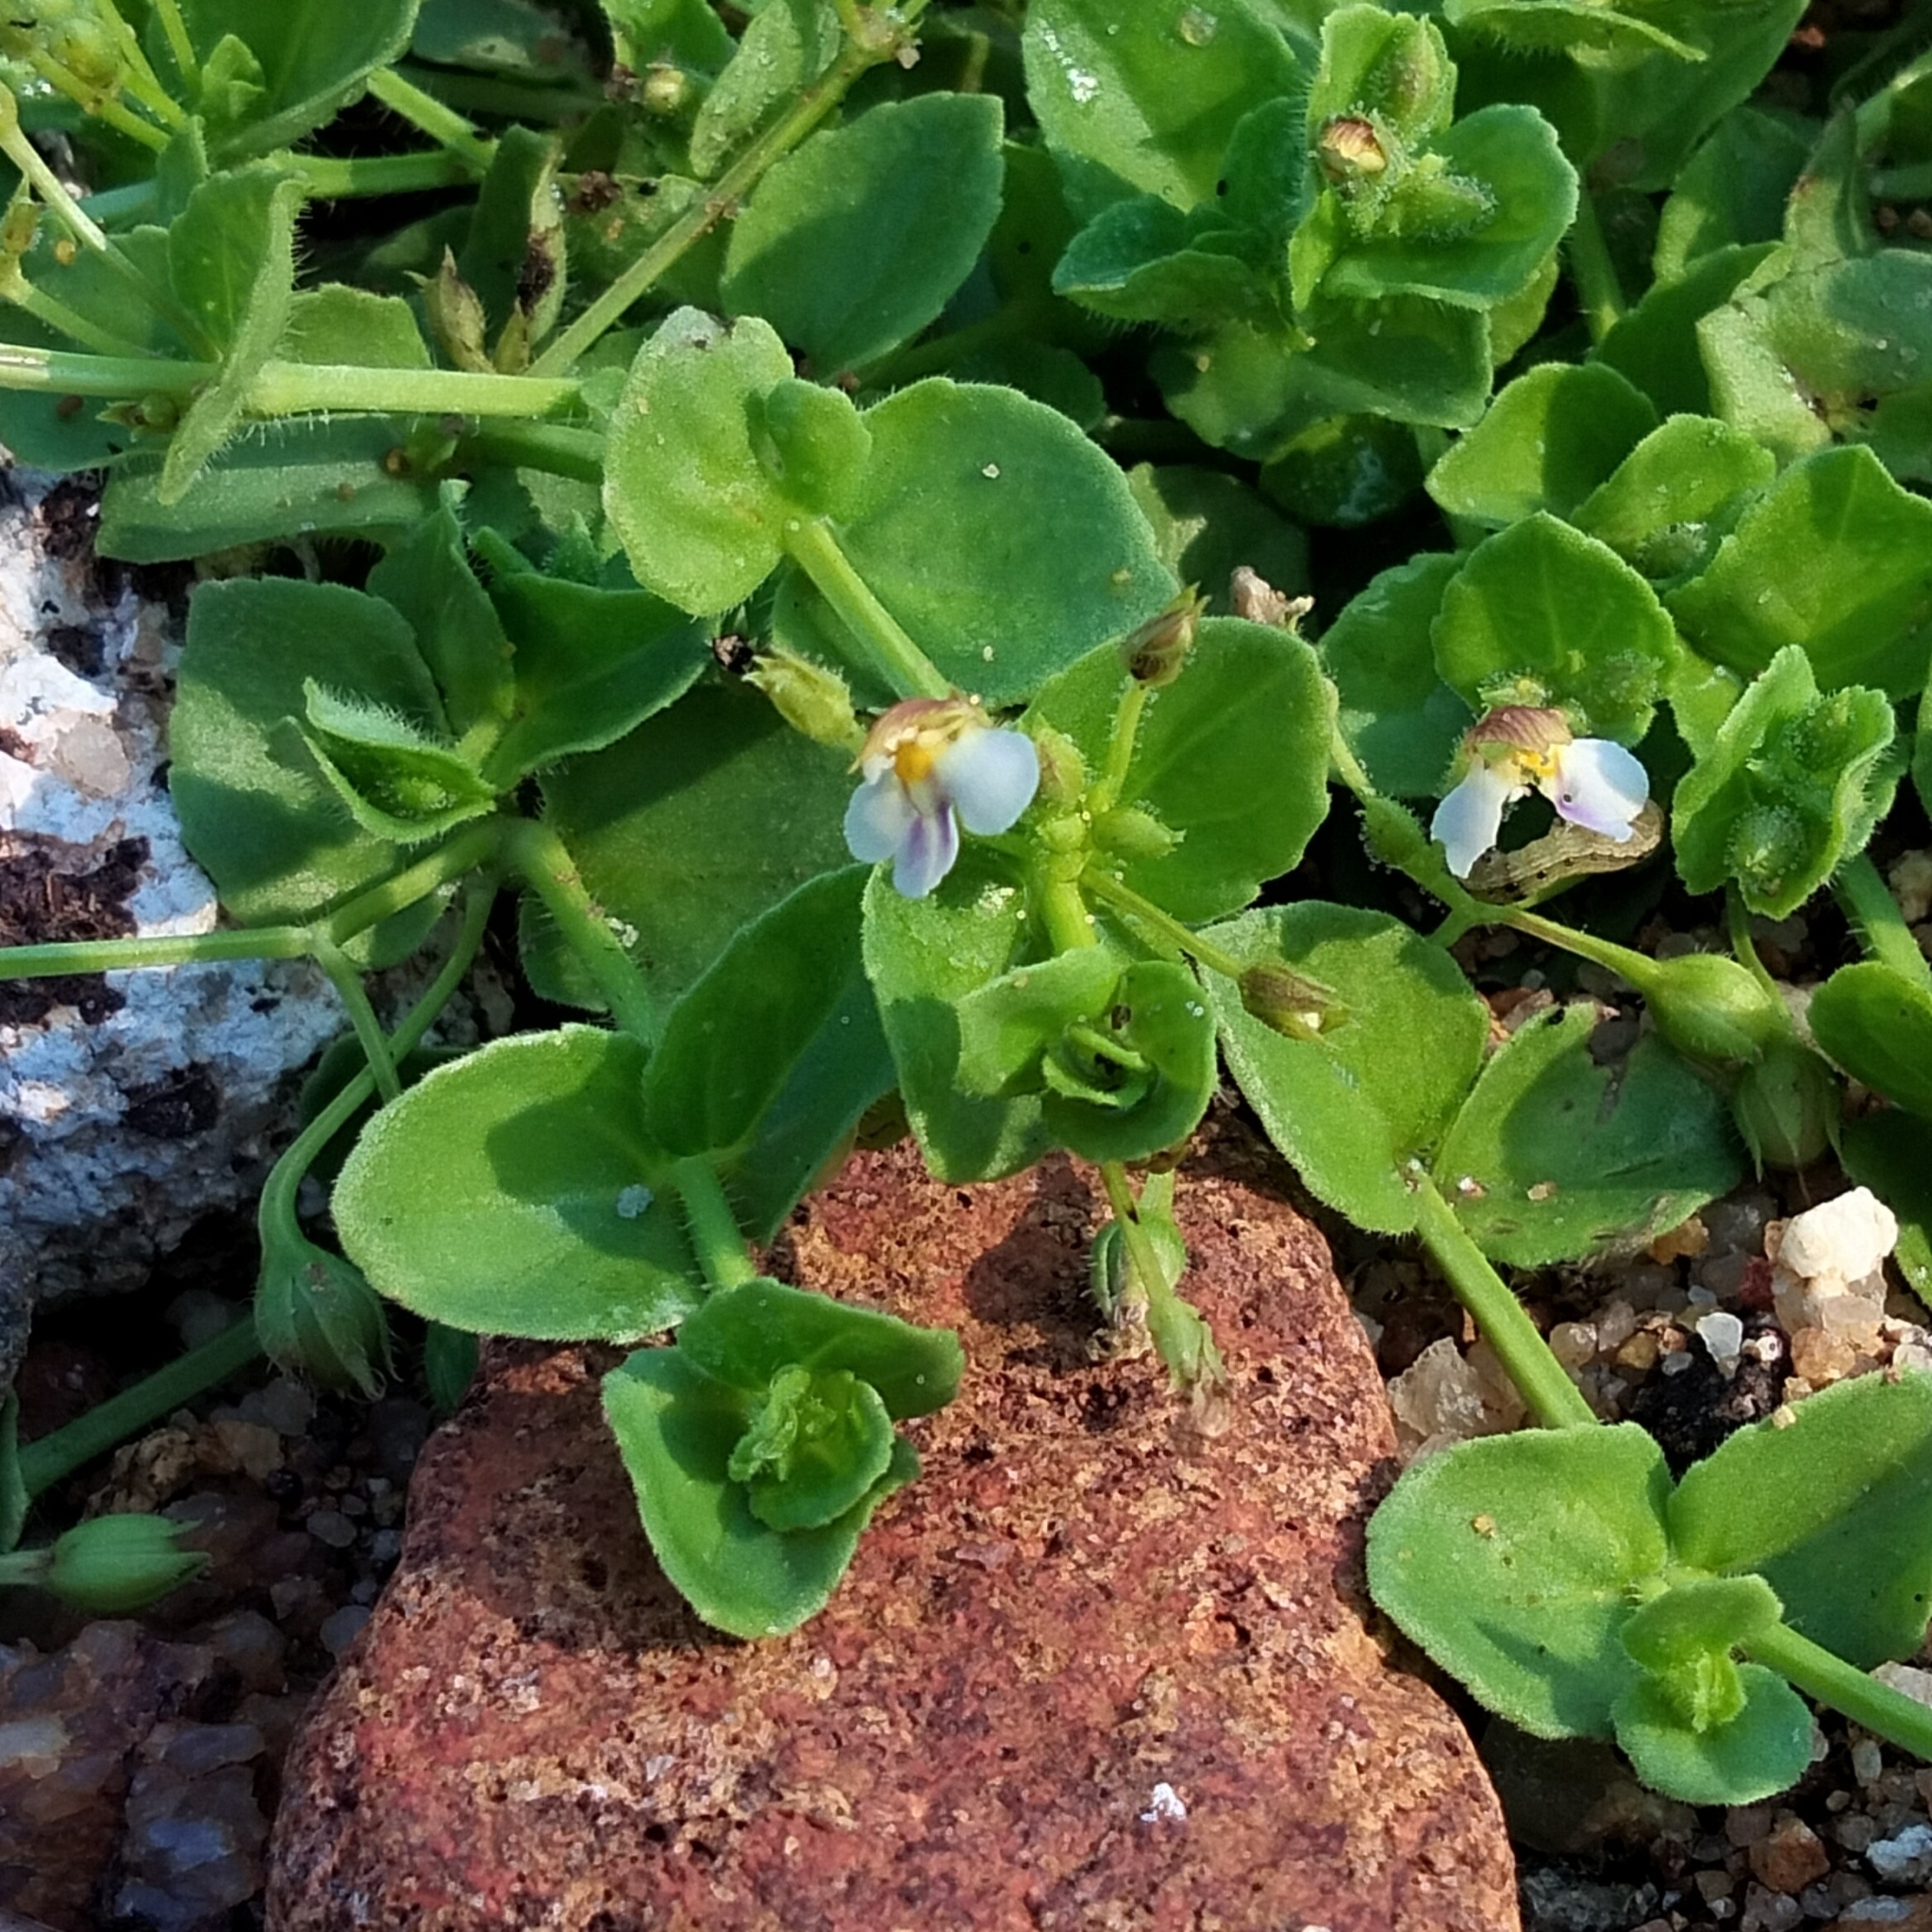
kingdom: Plantae
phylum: Tracheophyta
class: Magnoliopsida
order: Lamiales
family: Linderniaceae
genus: Yamazakia
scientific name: Yamazakia pusilla
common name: Tiny slitwort
